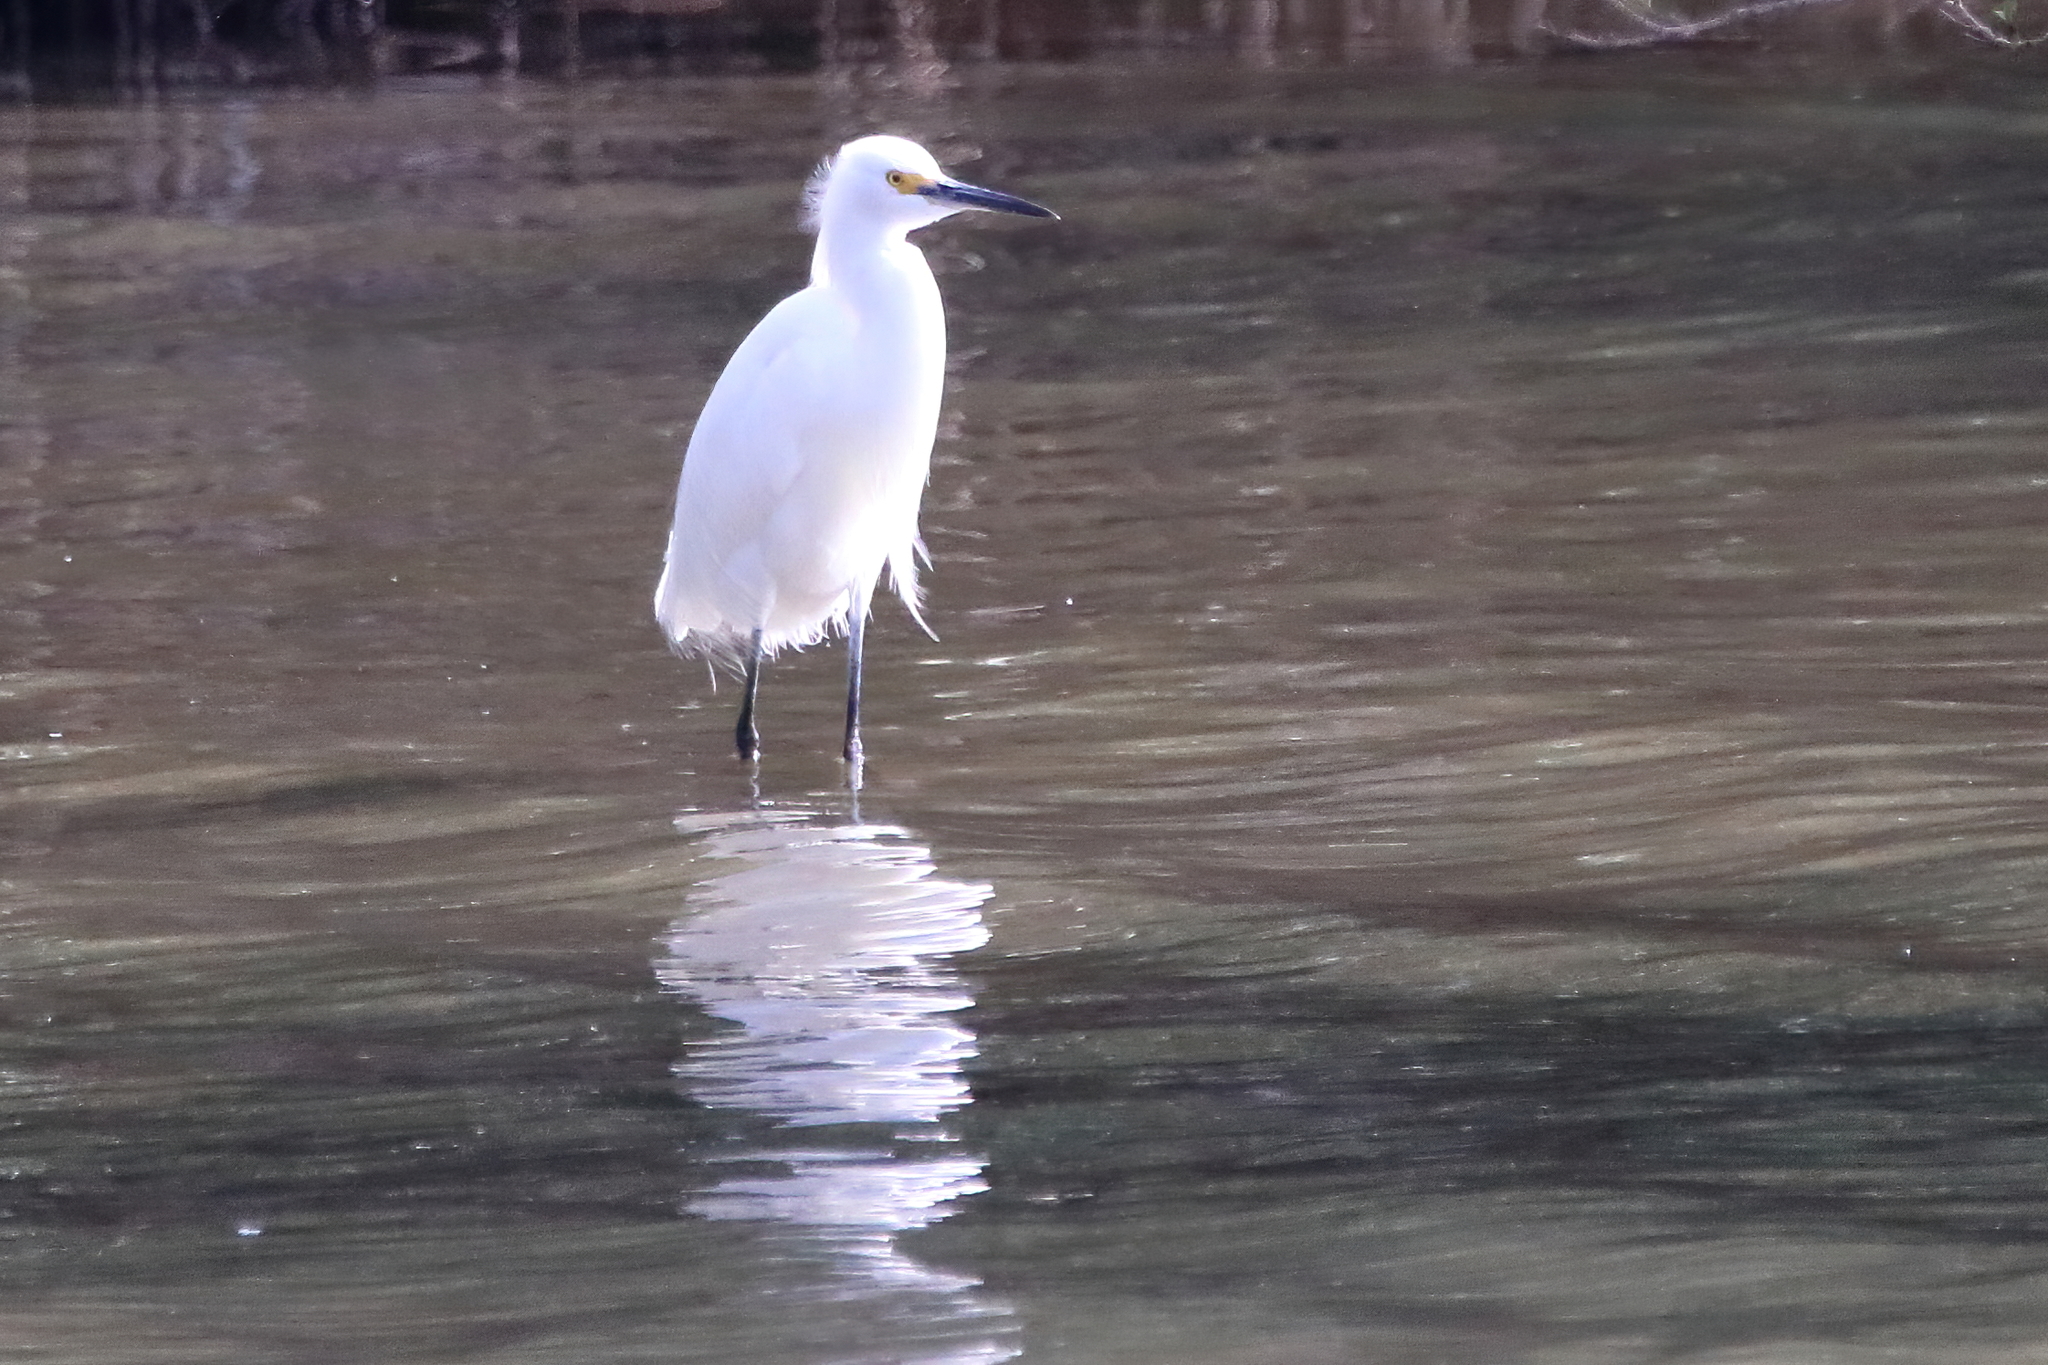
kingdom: Animalia
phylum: Chordata
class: Aves
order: Pelecaniformes
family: Ardeidae
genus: Egretta
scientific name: Egretta thula
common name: Snowy egret
